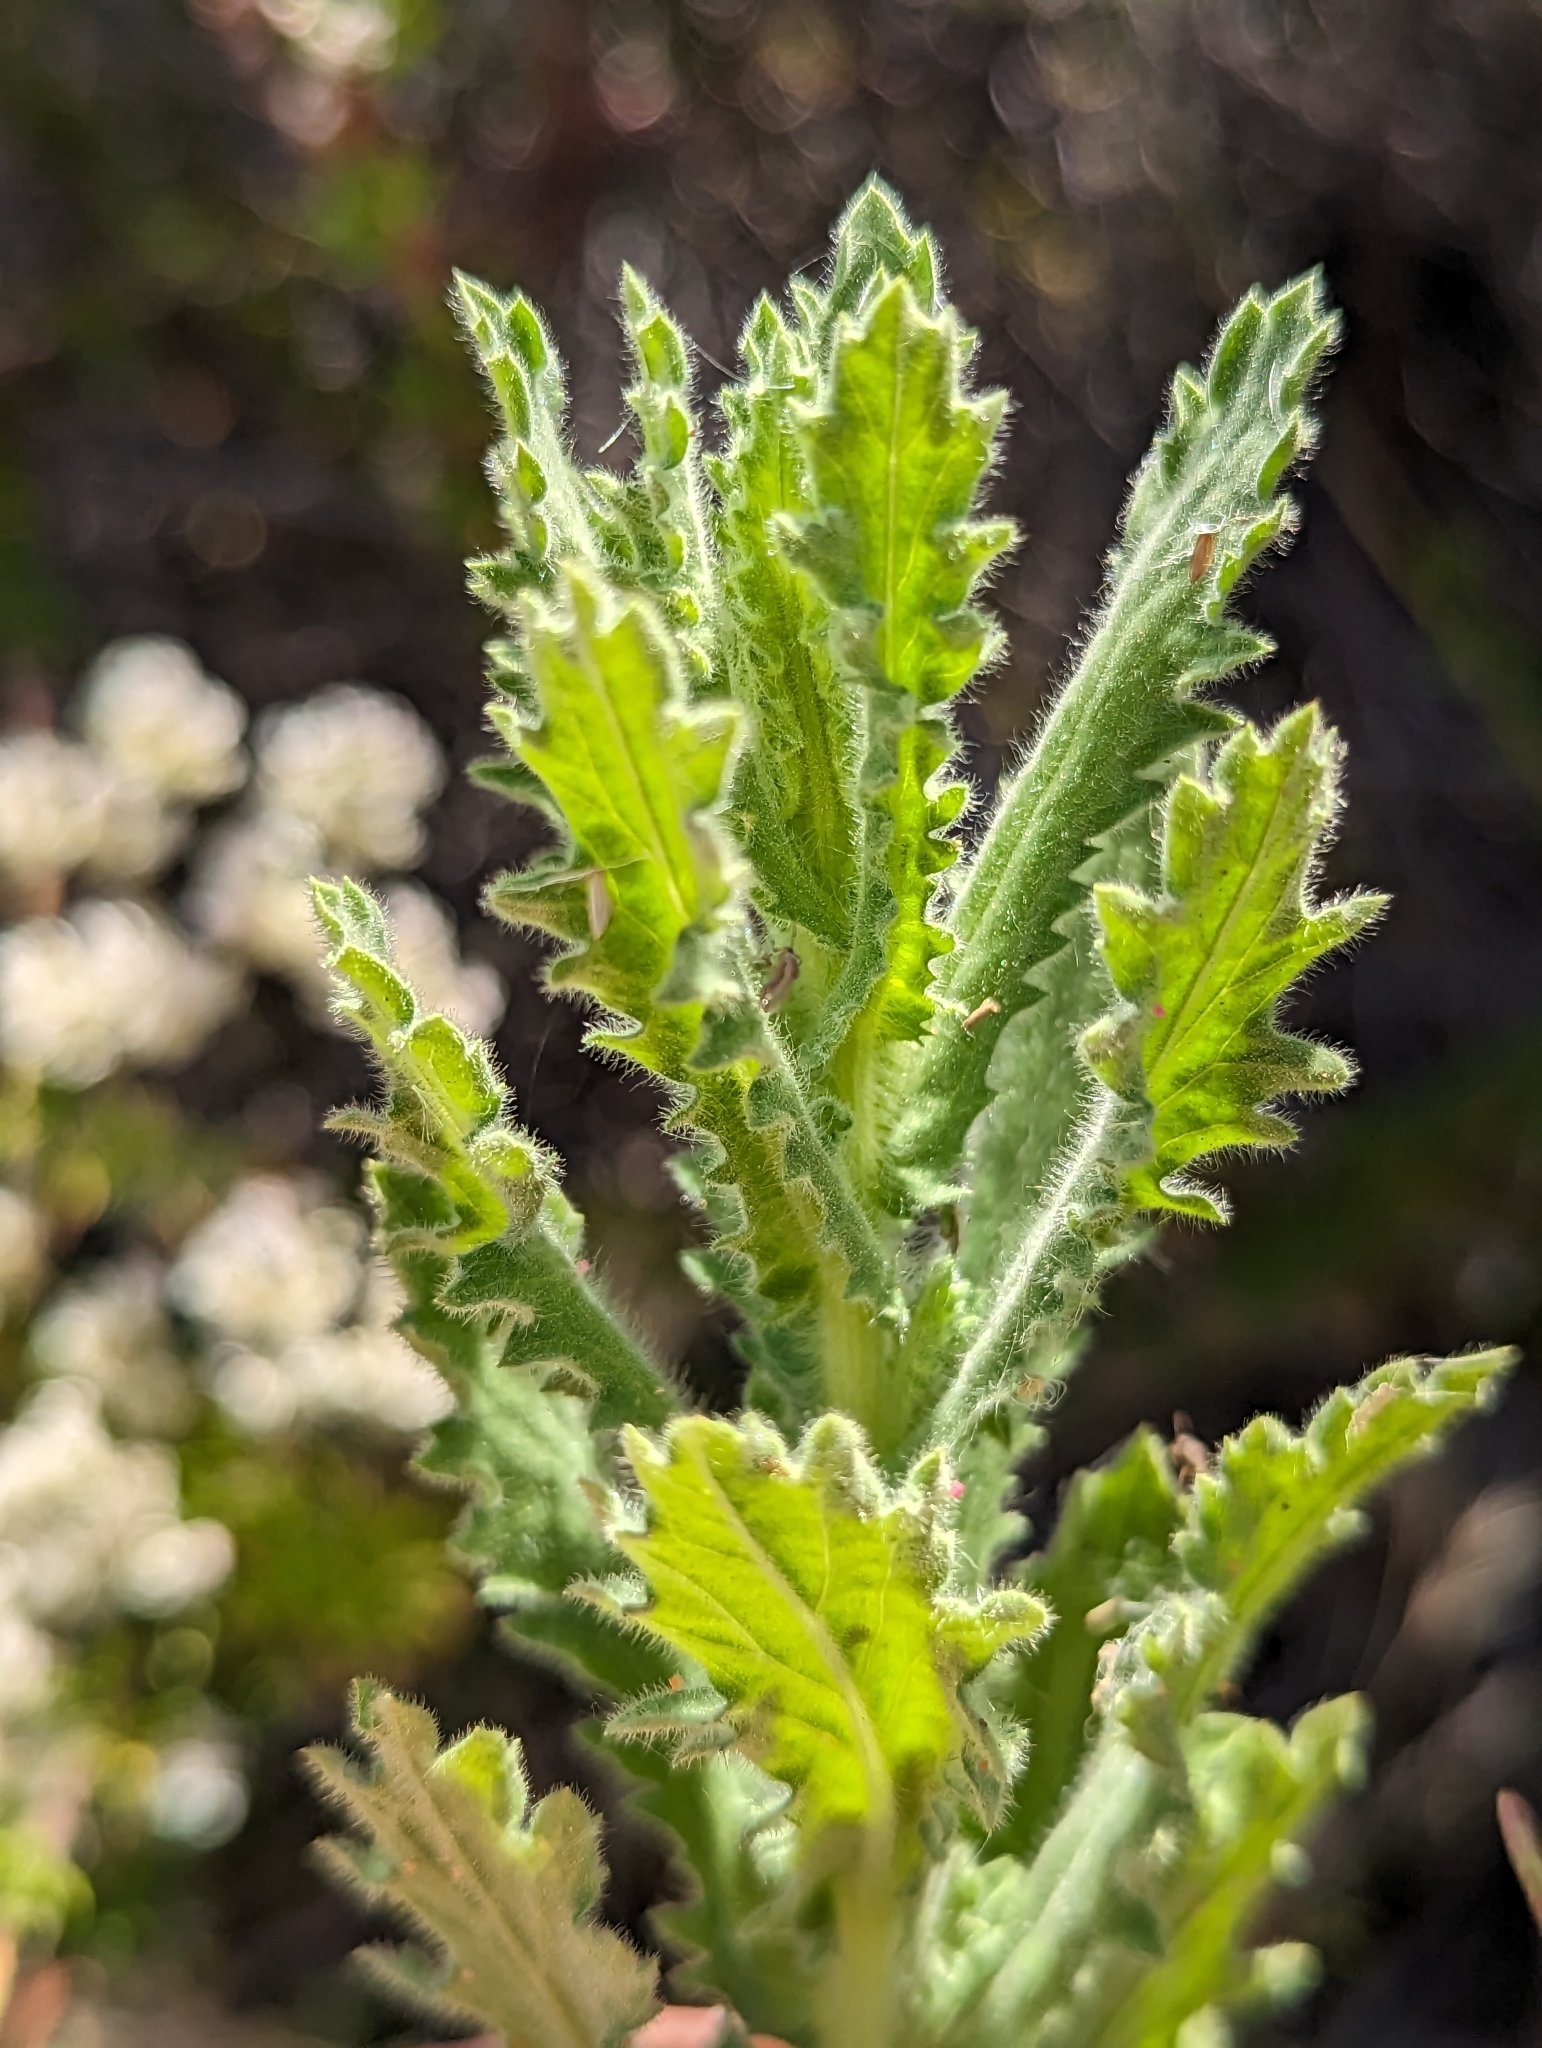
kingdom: Plantae
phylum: Tracheophyta
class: Magnoliopsida
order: Asterales
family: Asteraceae
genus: Laennecia
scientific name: Laennecia coulteri
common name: Coulter's woolwort
